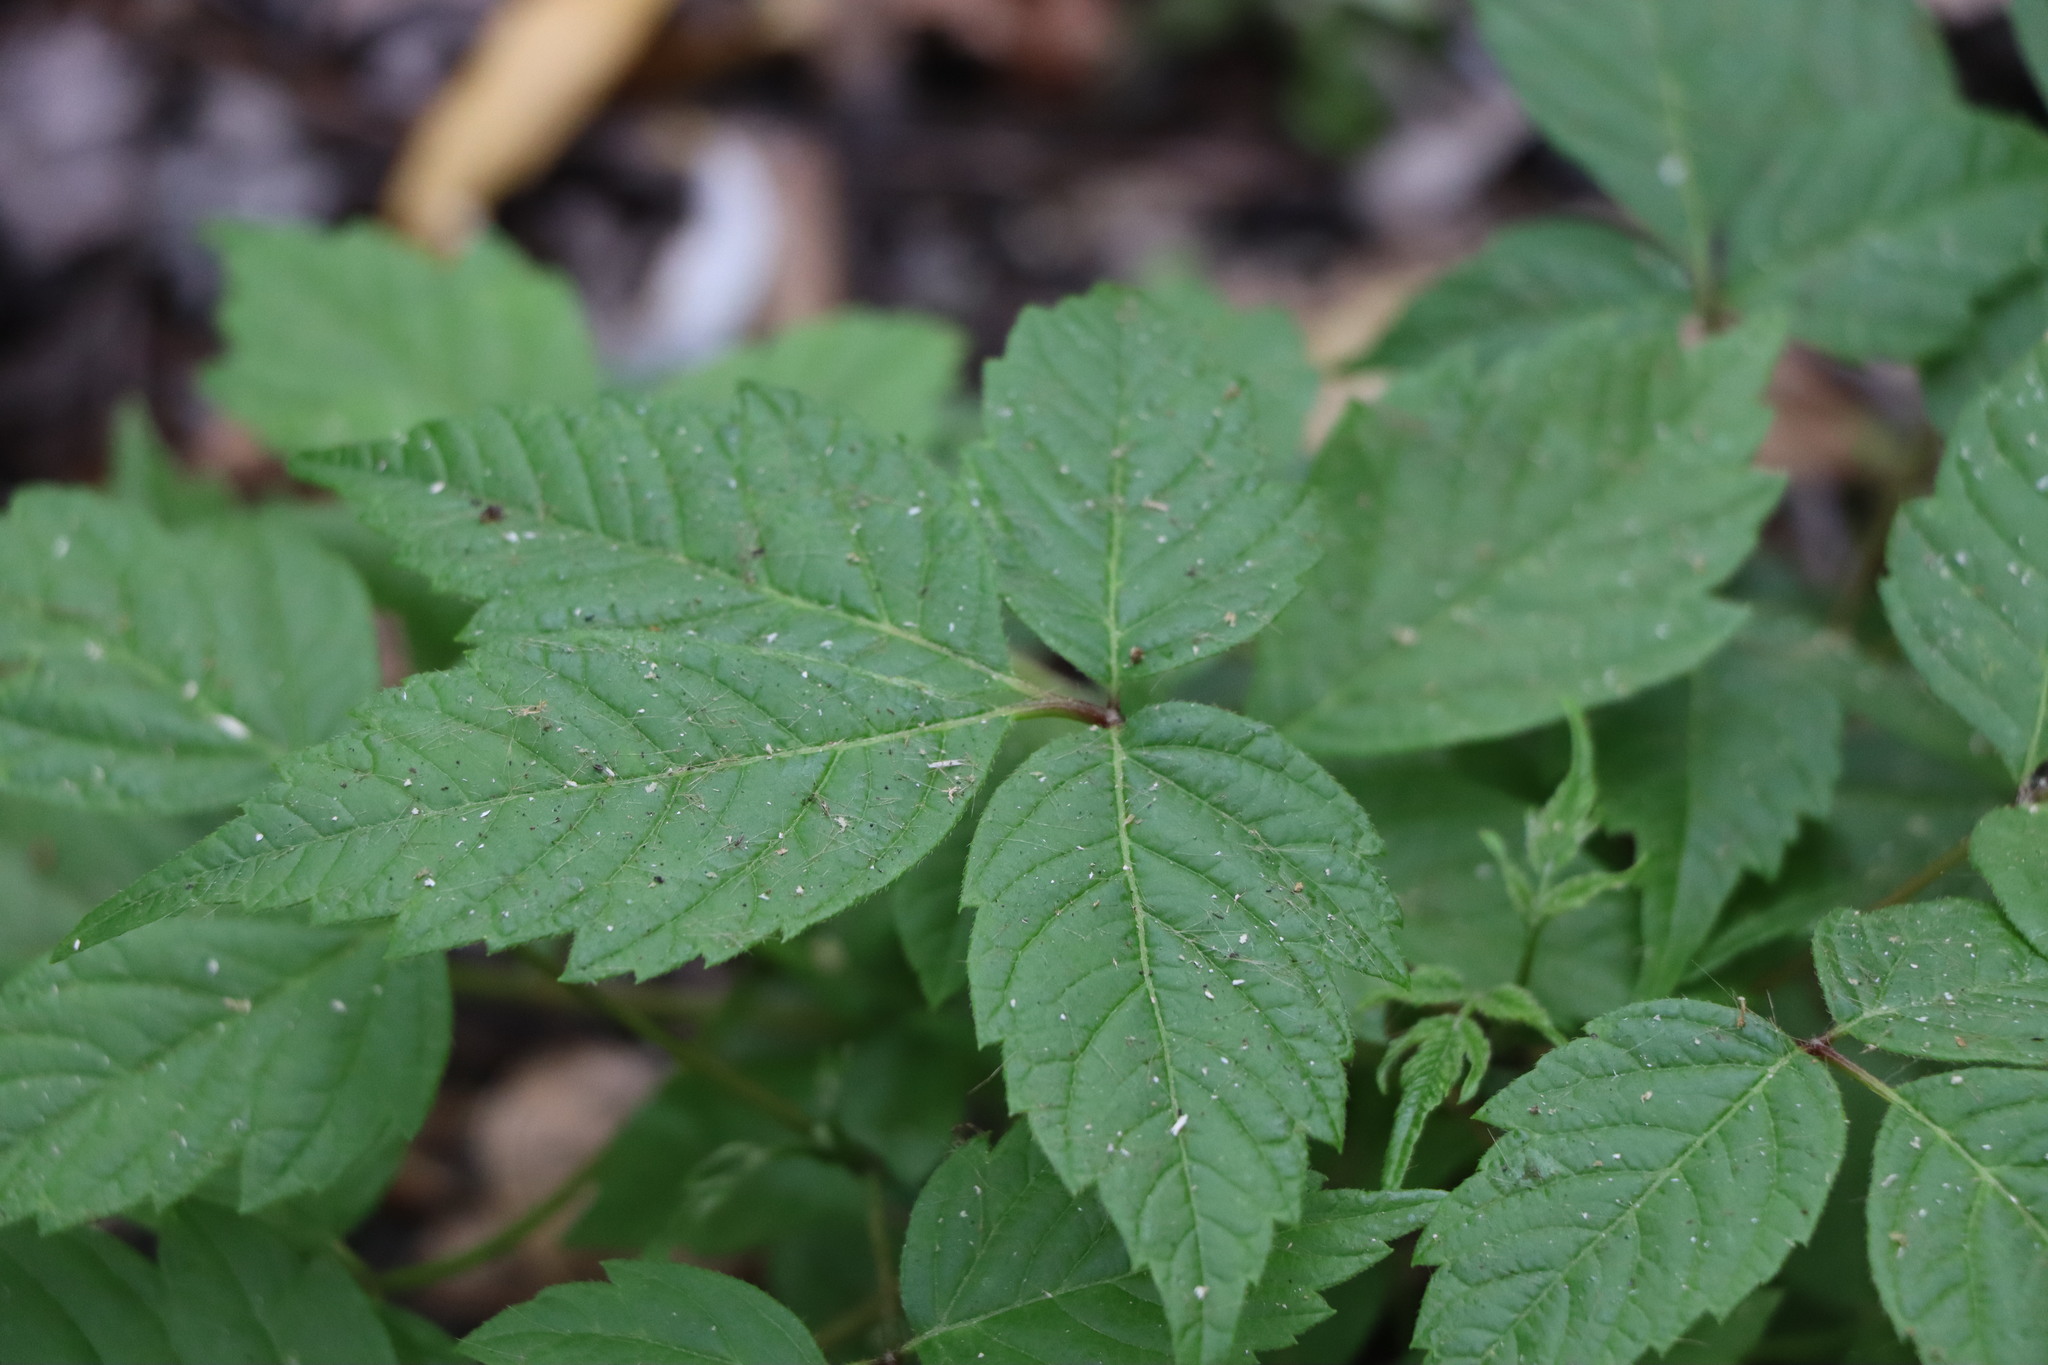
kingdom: Plantae
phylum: Tracheophyta
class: Magnoliopsida
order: Sapindales
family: Sapindaceae
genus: Acer
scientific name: Acer negundo
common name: Ashleaf maple
